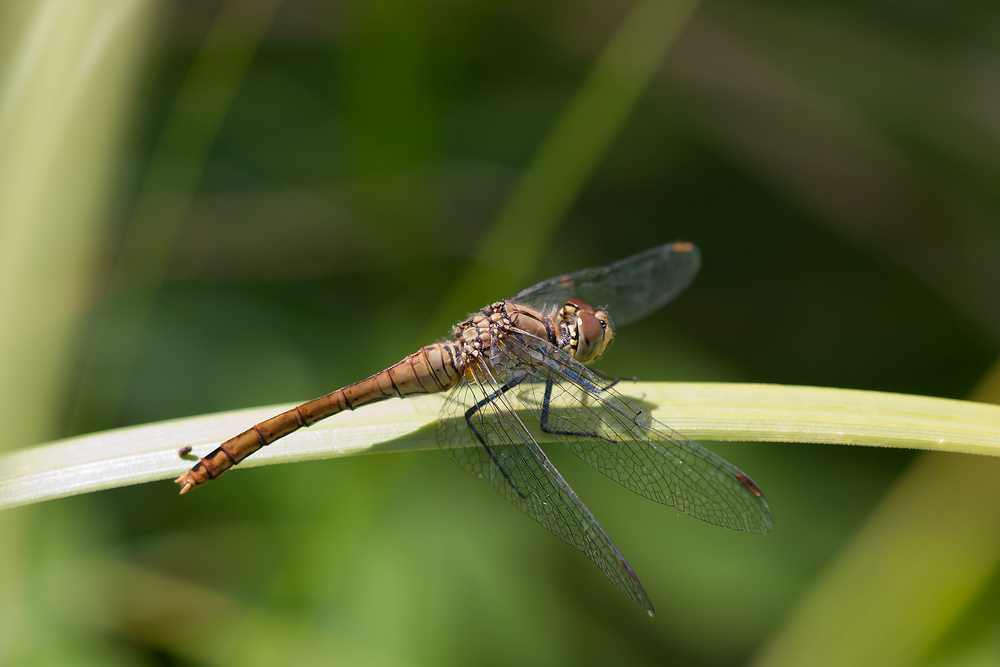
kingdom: Animalia
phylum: Arthropoda
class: Insecta
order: Odonata
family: Libellulidae
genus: Sympetrum
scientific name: Sympetrum sanguineum
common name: Ruddy darter
